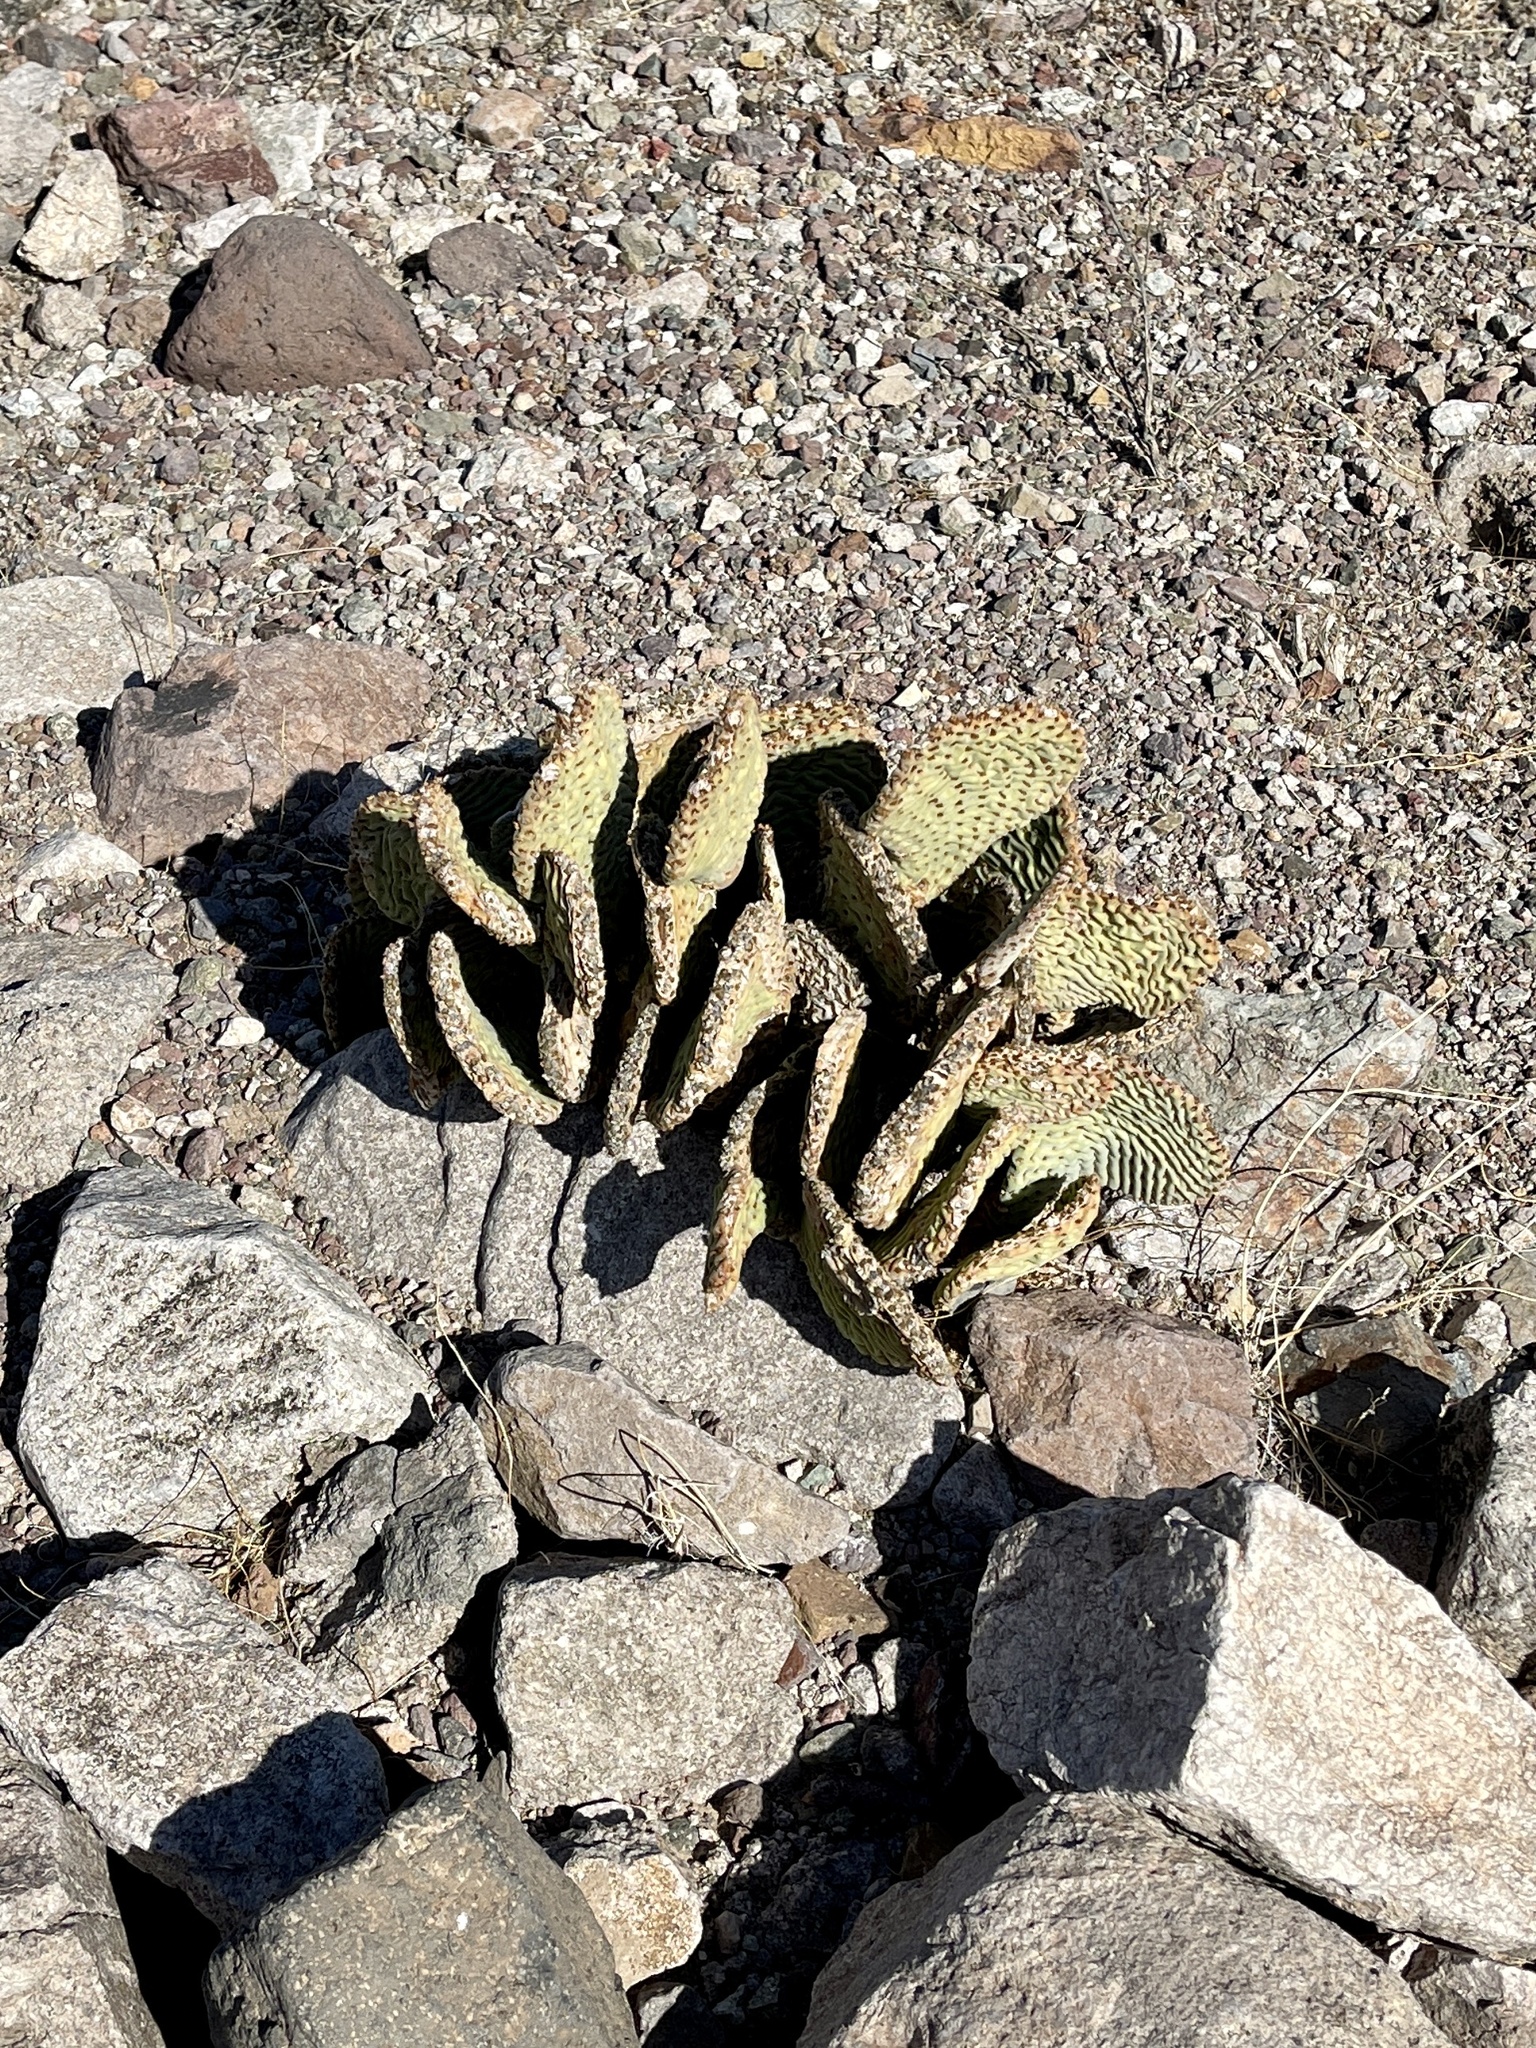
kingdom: Plantae
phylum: Tracheophyta
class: Magnoliopsida
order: Caryophyllales
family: Cactaceae
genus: Opuntia
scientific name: Opuntia basilaris
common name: Beavertail prickly-pear
